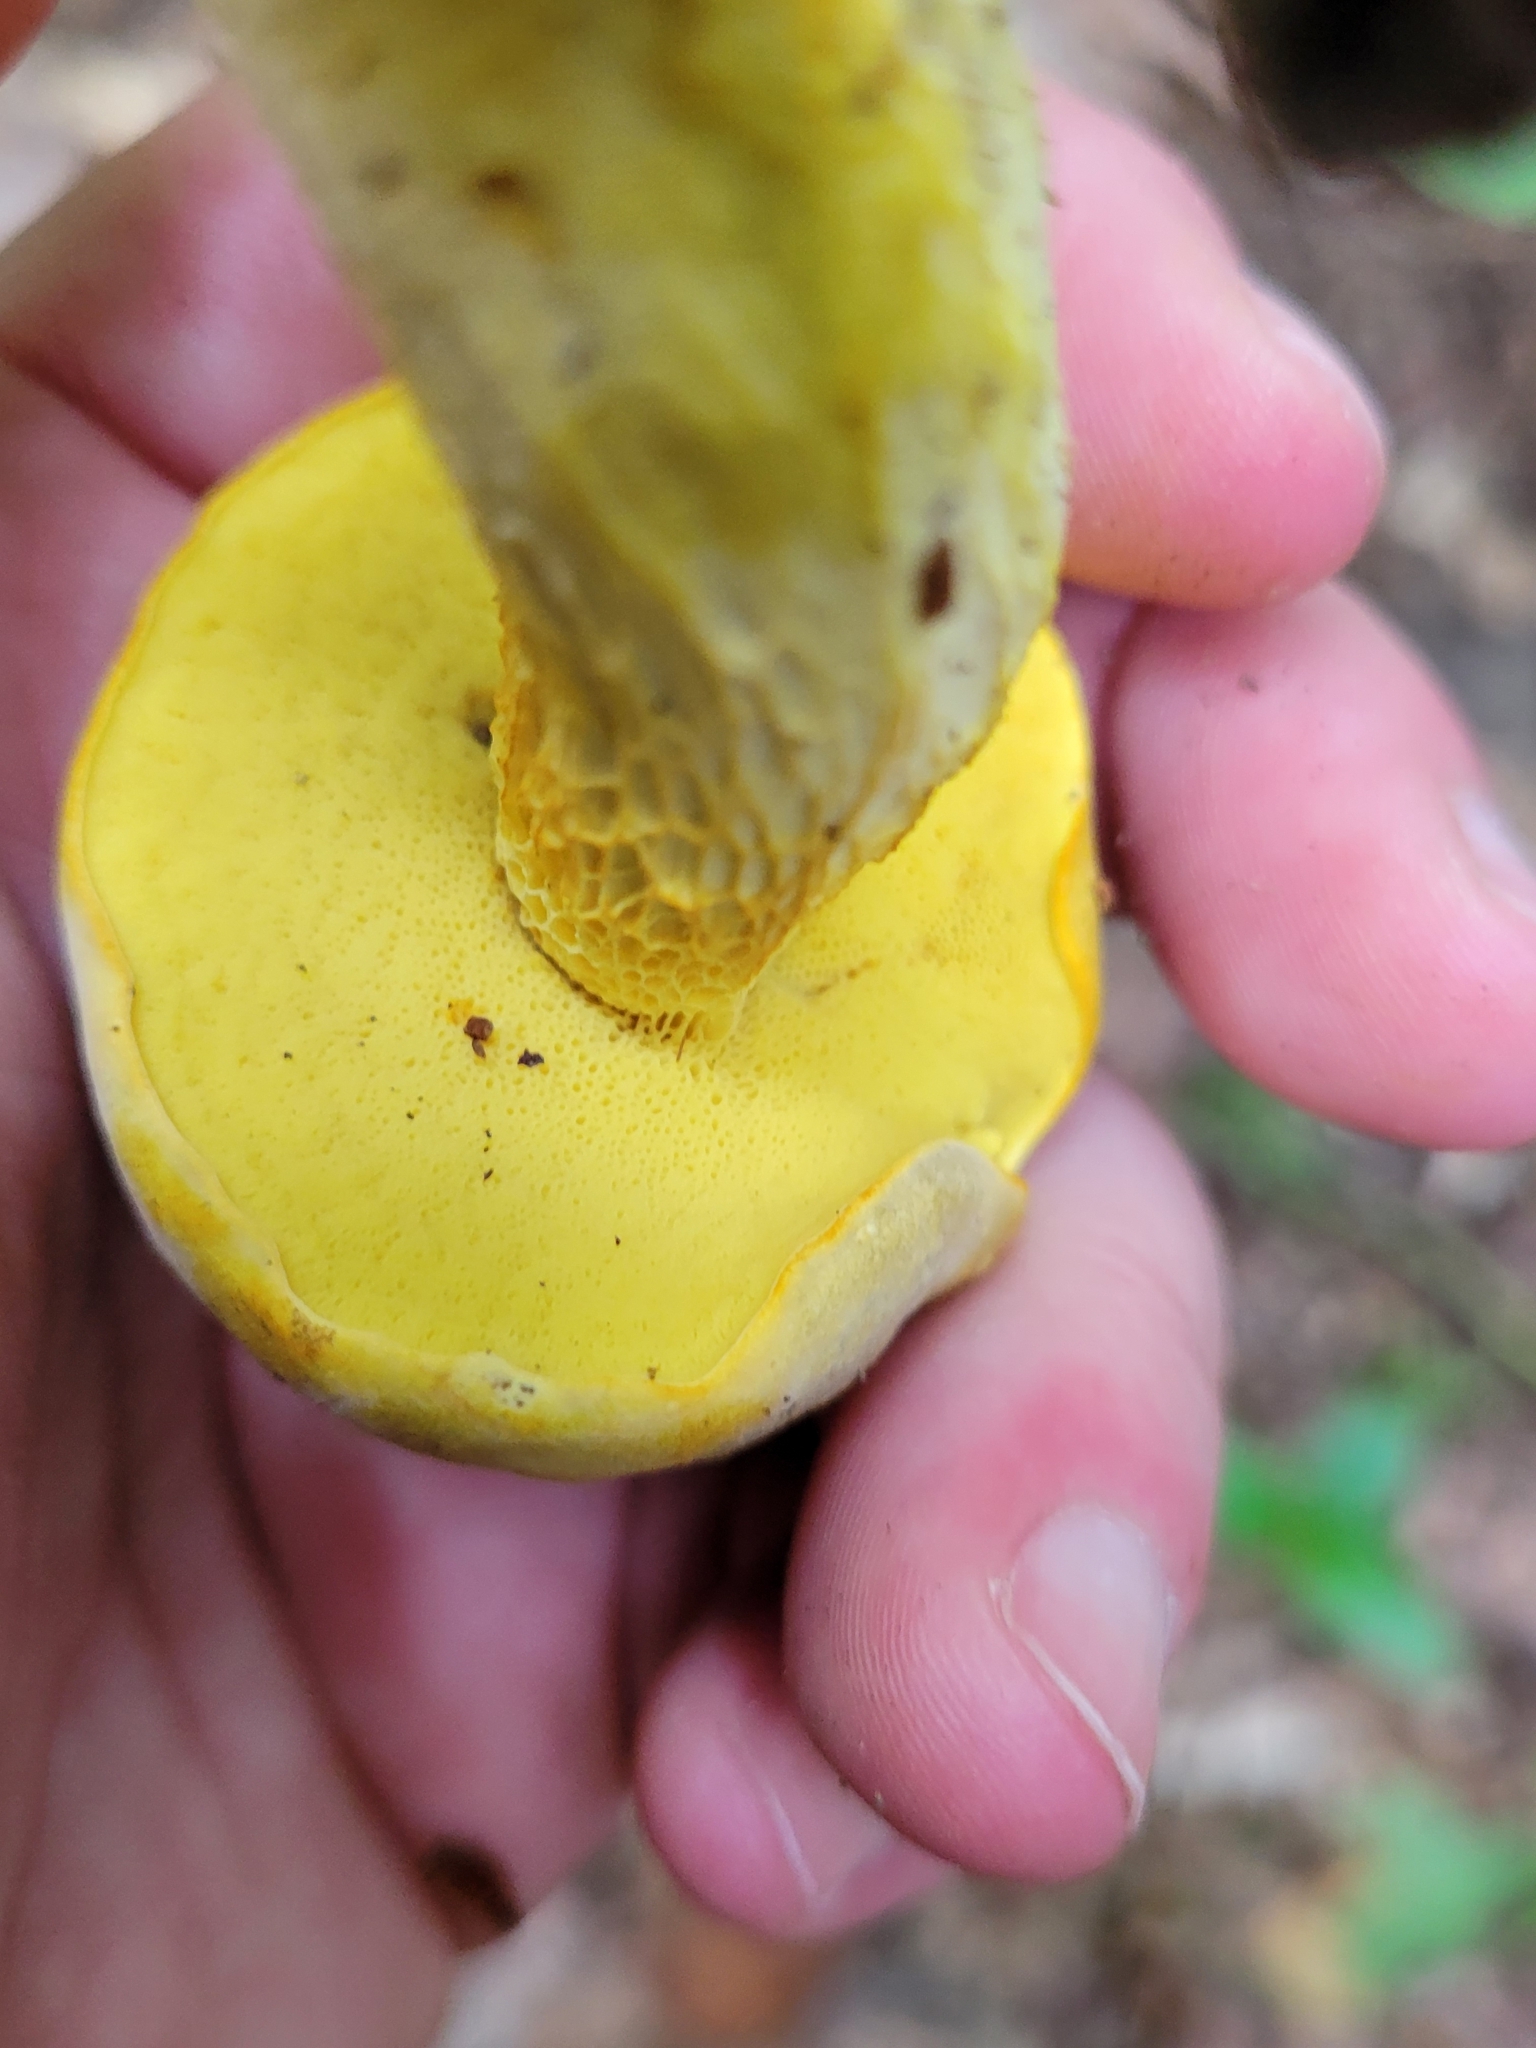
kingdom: Fungi
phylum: Basidiomycota
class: Agaricomycetes
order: Boletales
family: Boletaceae
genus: Retiboletus
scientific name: Retiboletus ornatipes
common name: Ornate-stalked bolete
